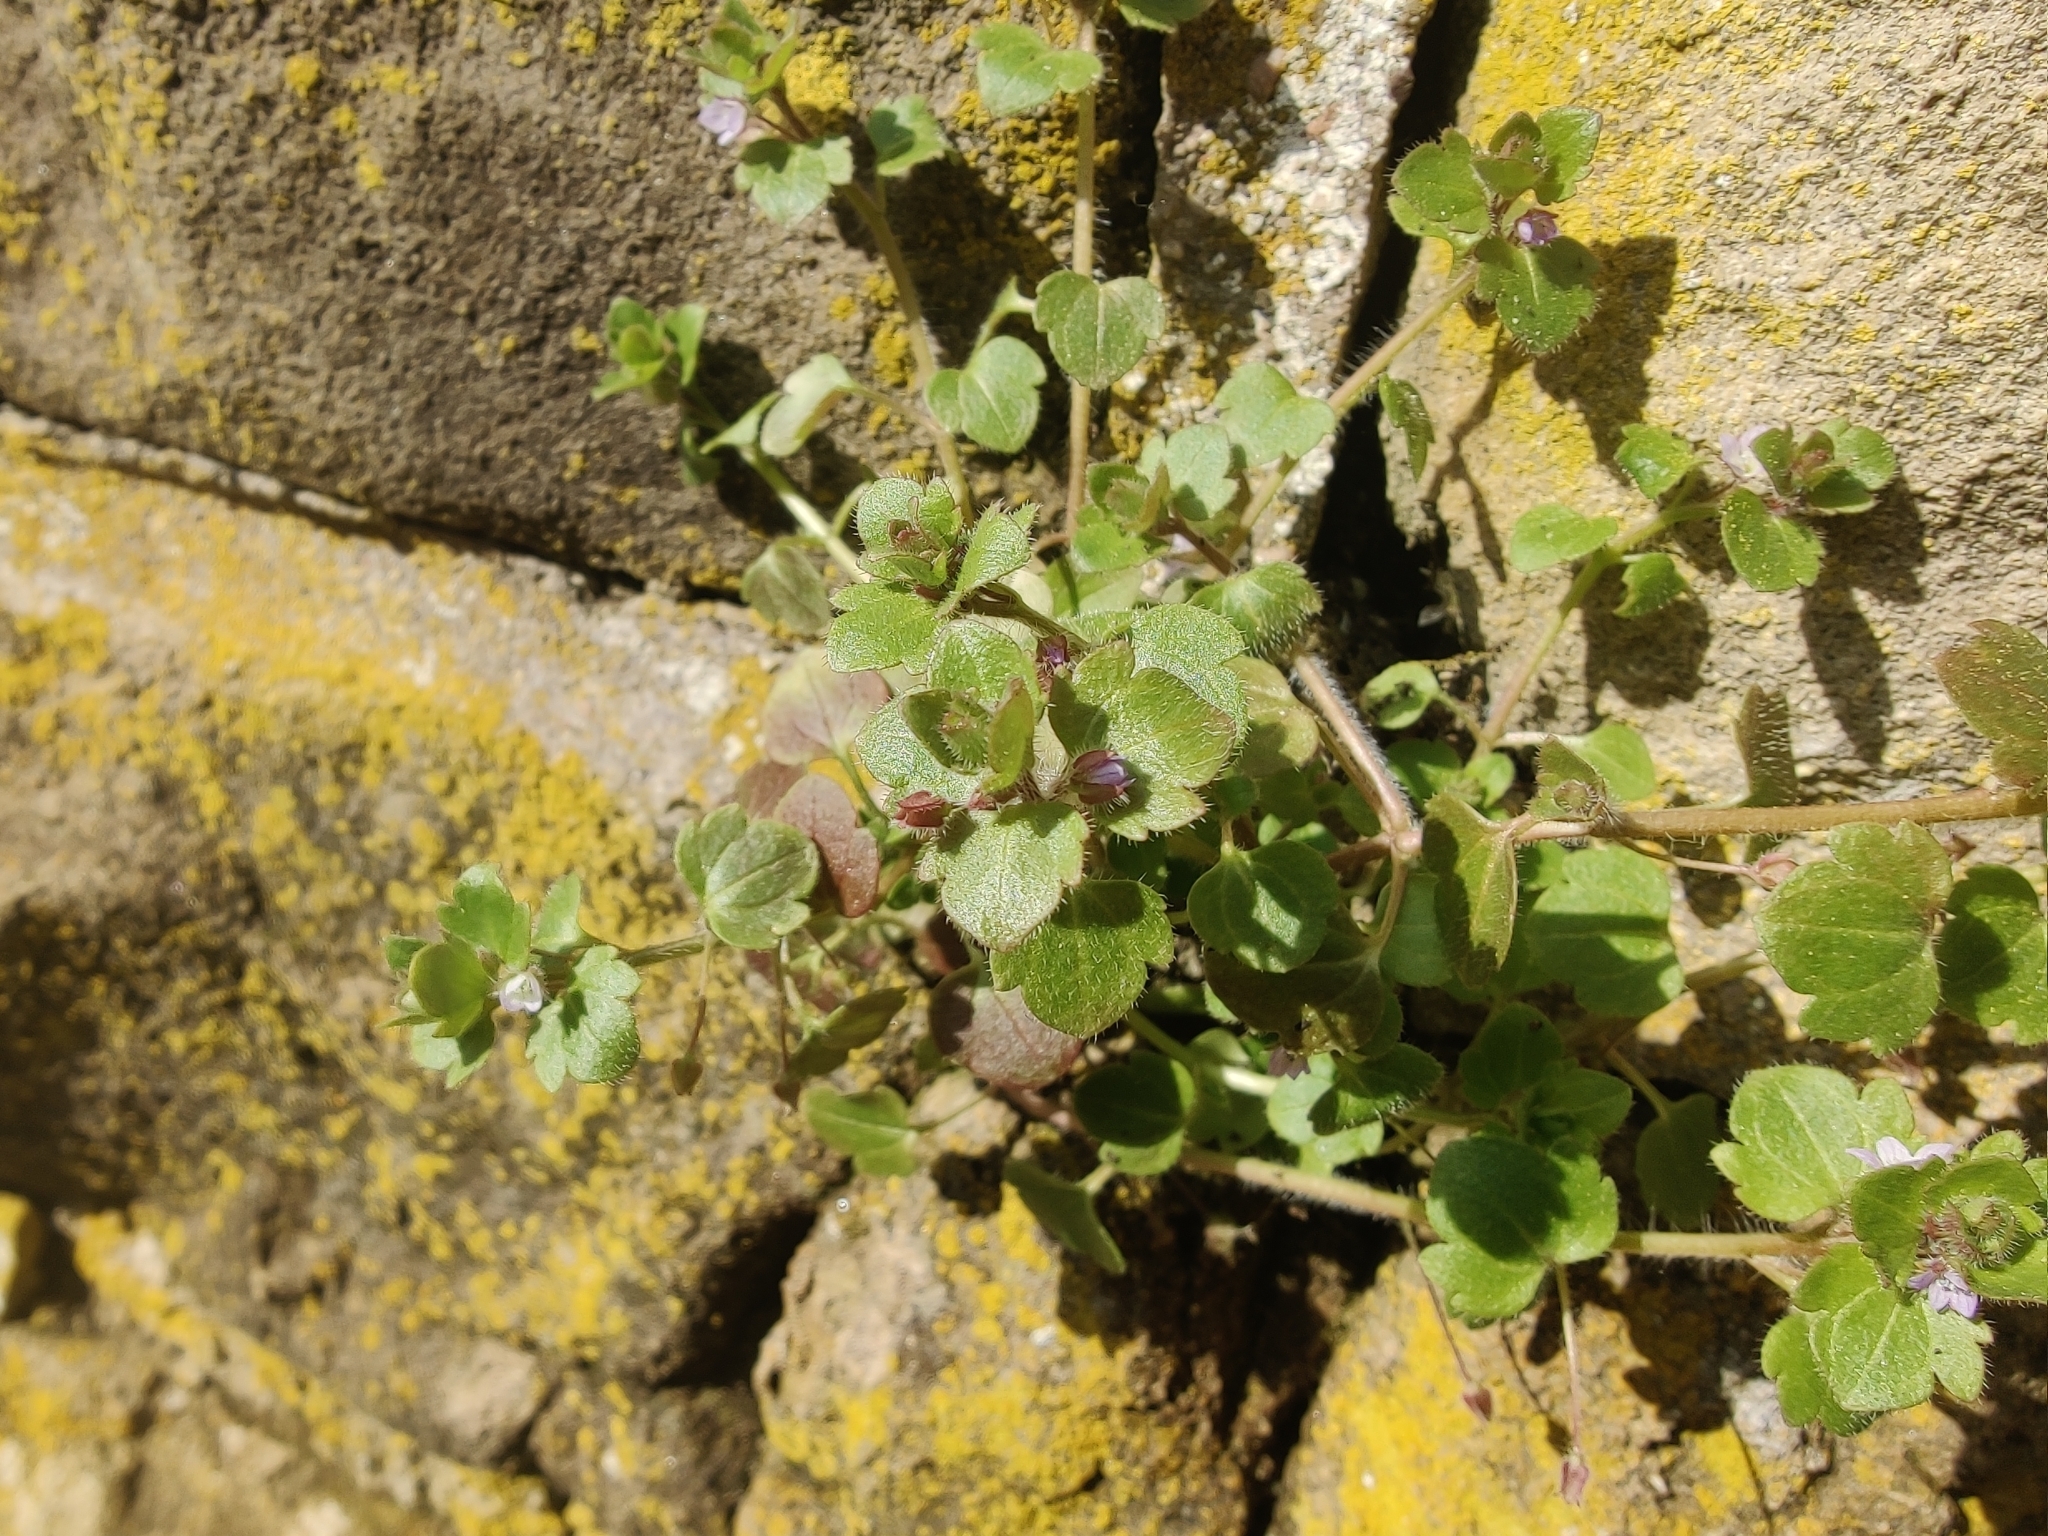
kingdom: Plantae
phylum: Tracheophyta
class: Magnoliopsida
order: Lamiales
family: Plantaginaceae
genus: Veronica
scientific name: Veronica sublobata
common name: False ivy-leaved speedwell
